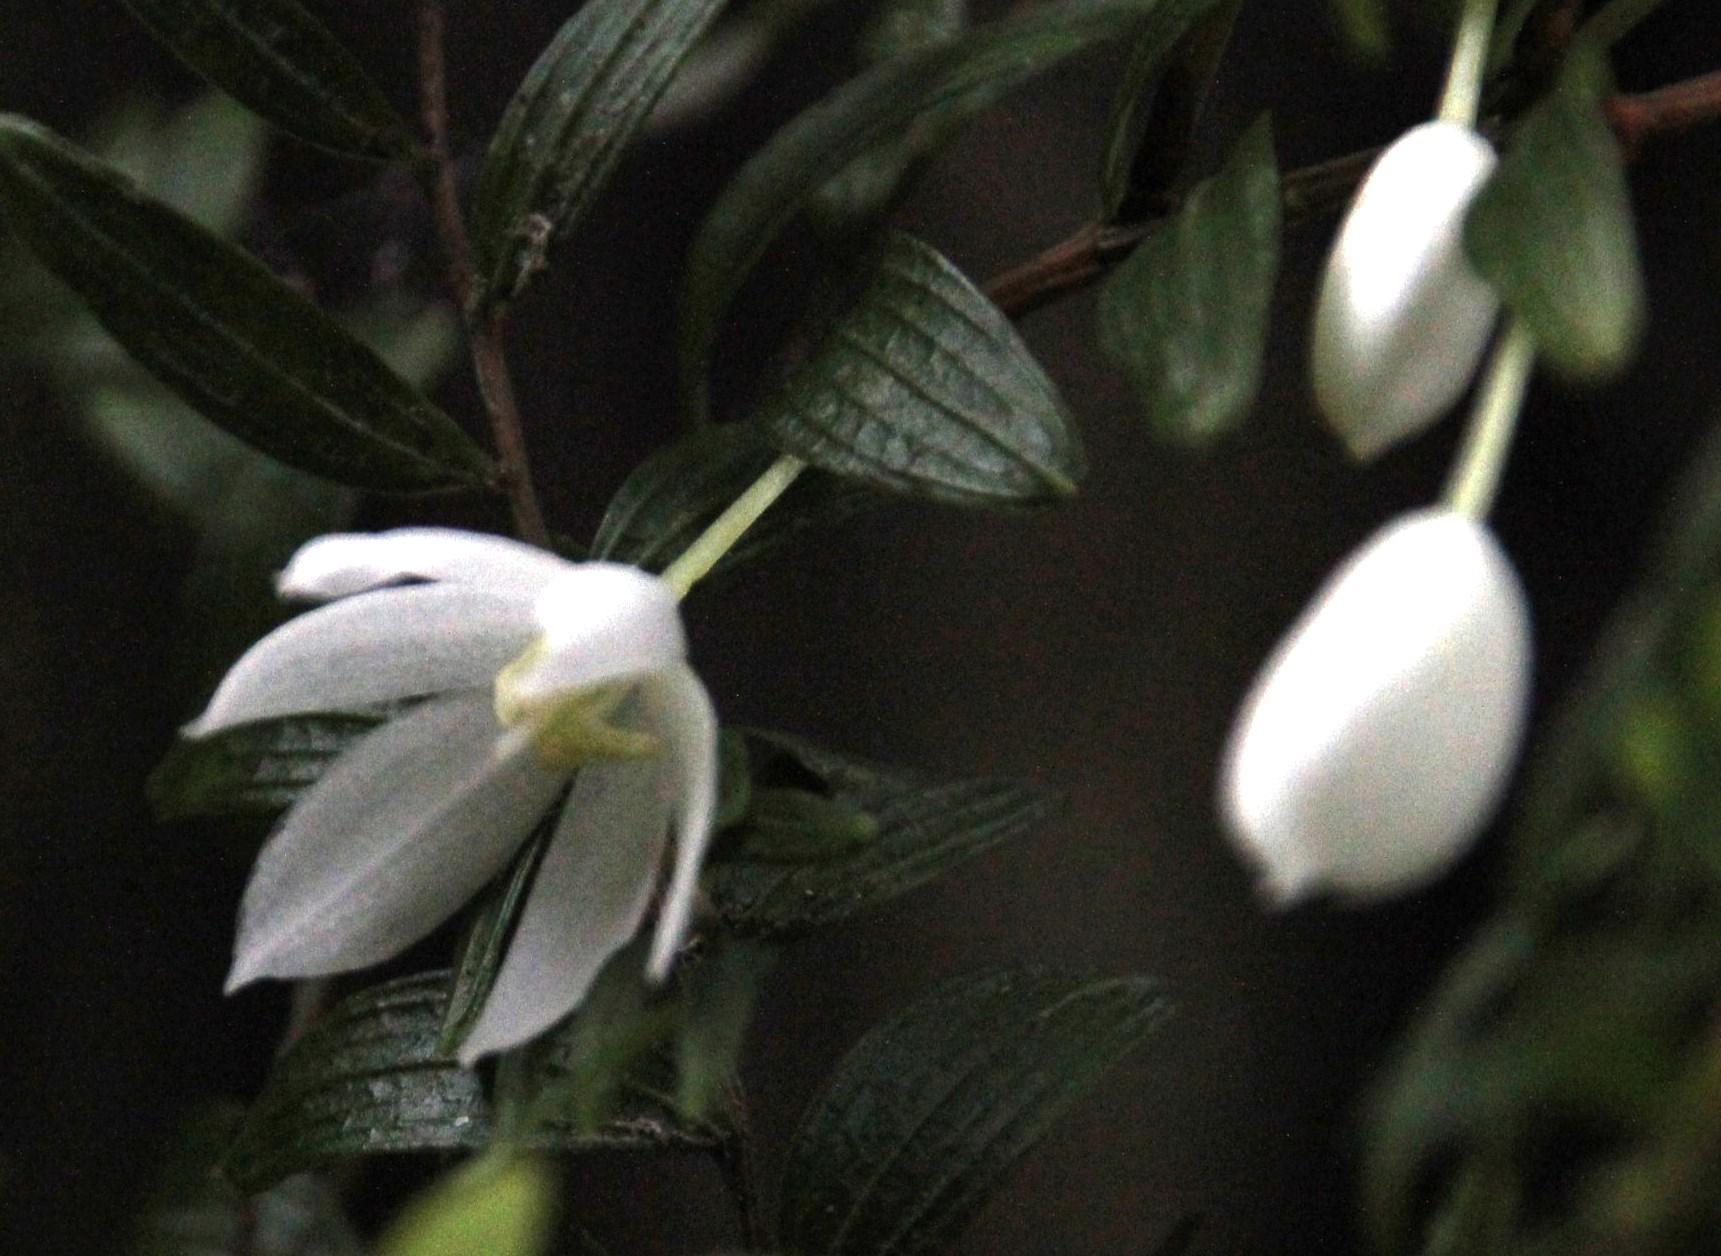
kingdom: Plantae
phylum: Tracheophyta
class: Liliopsida
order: Liliales
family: Alstroemeriaceae
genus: Luzuriaga
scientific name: Luzuriaga polyphylla
